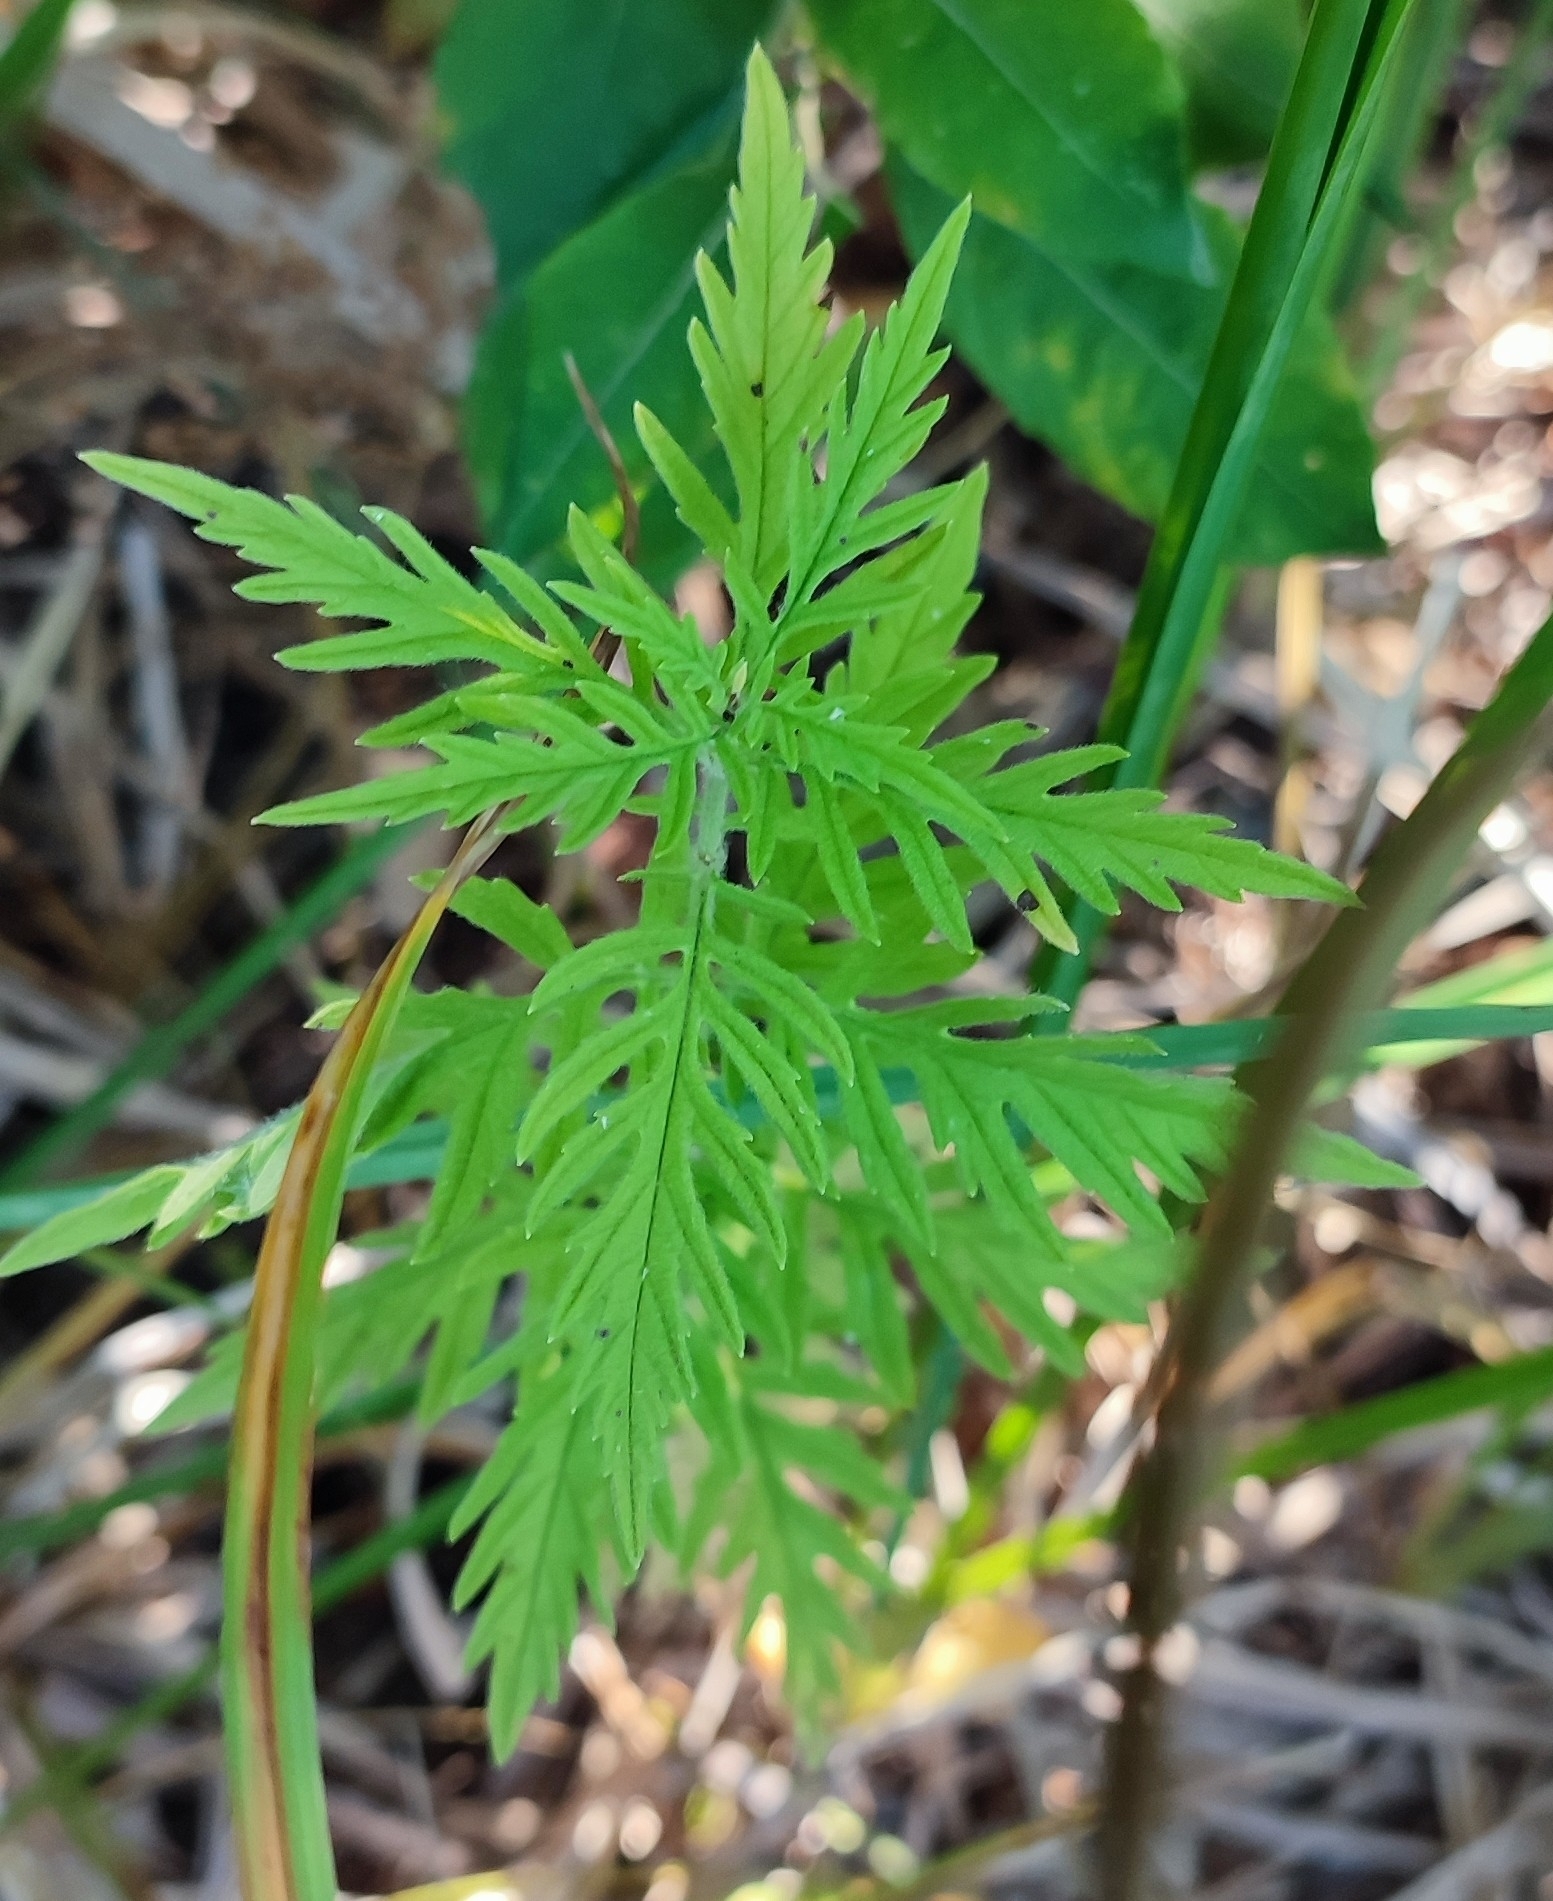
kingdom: Plantae
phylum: Tracheophyta
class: Magnoliopsida
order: Lamiales
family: Lamiaceae
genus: Lycopus
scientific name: Lycopus exaltatus
